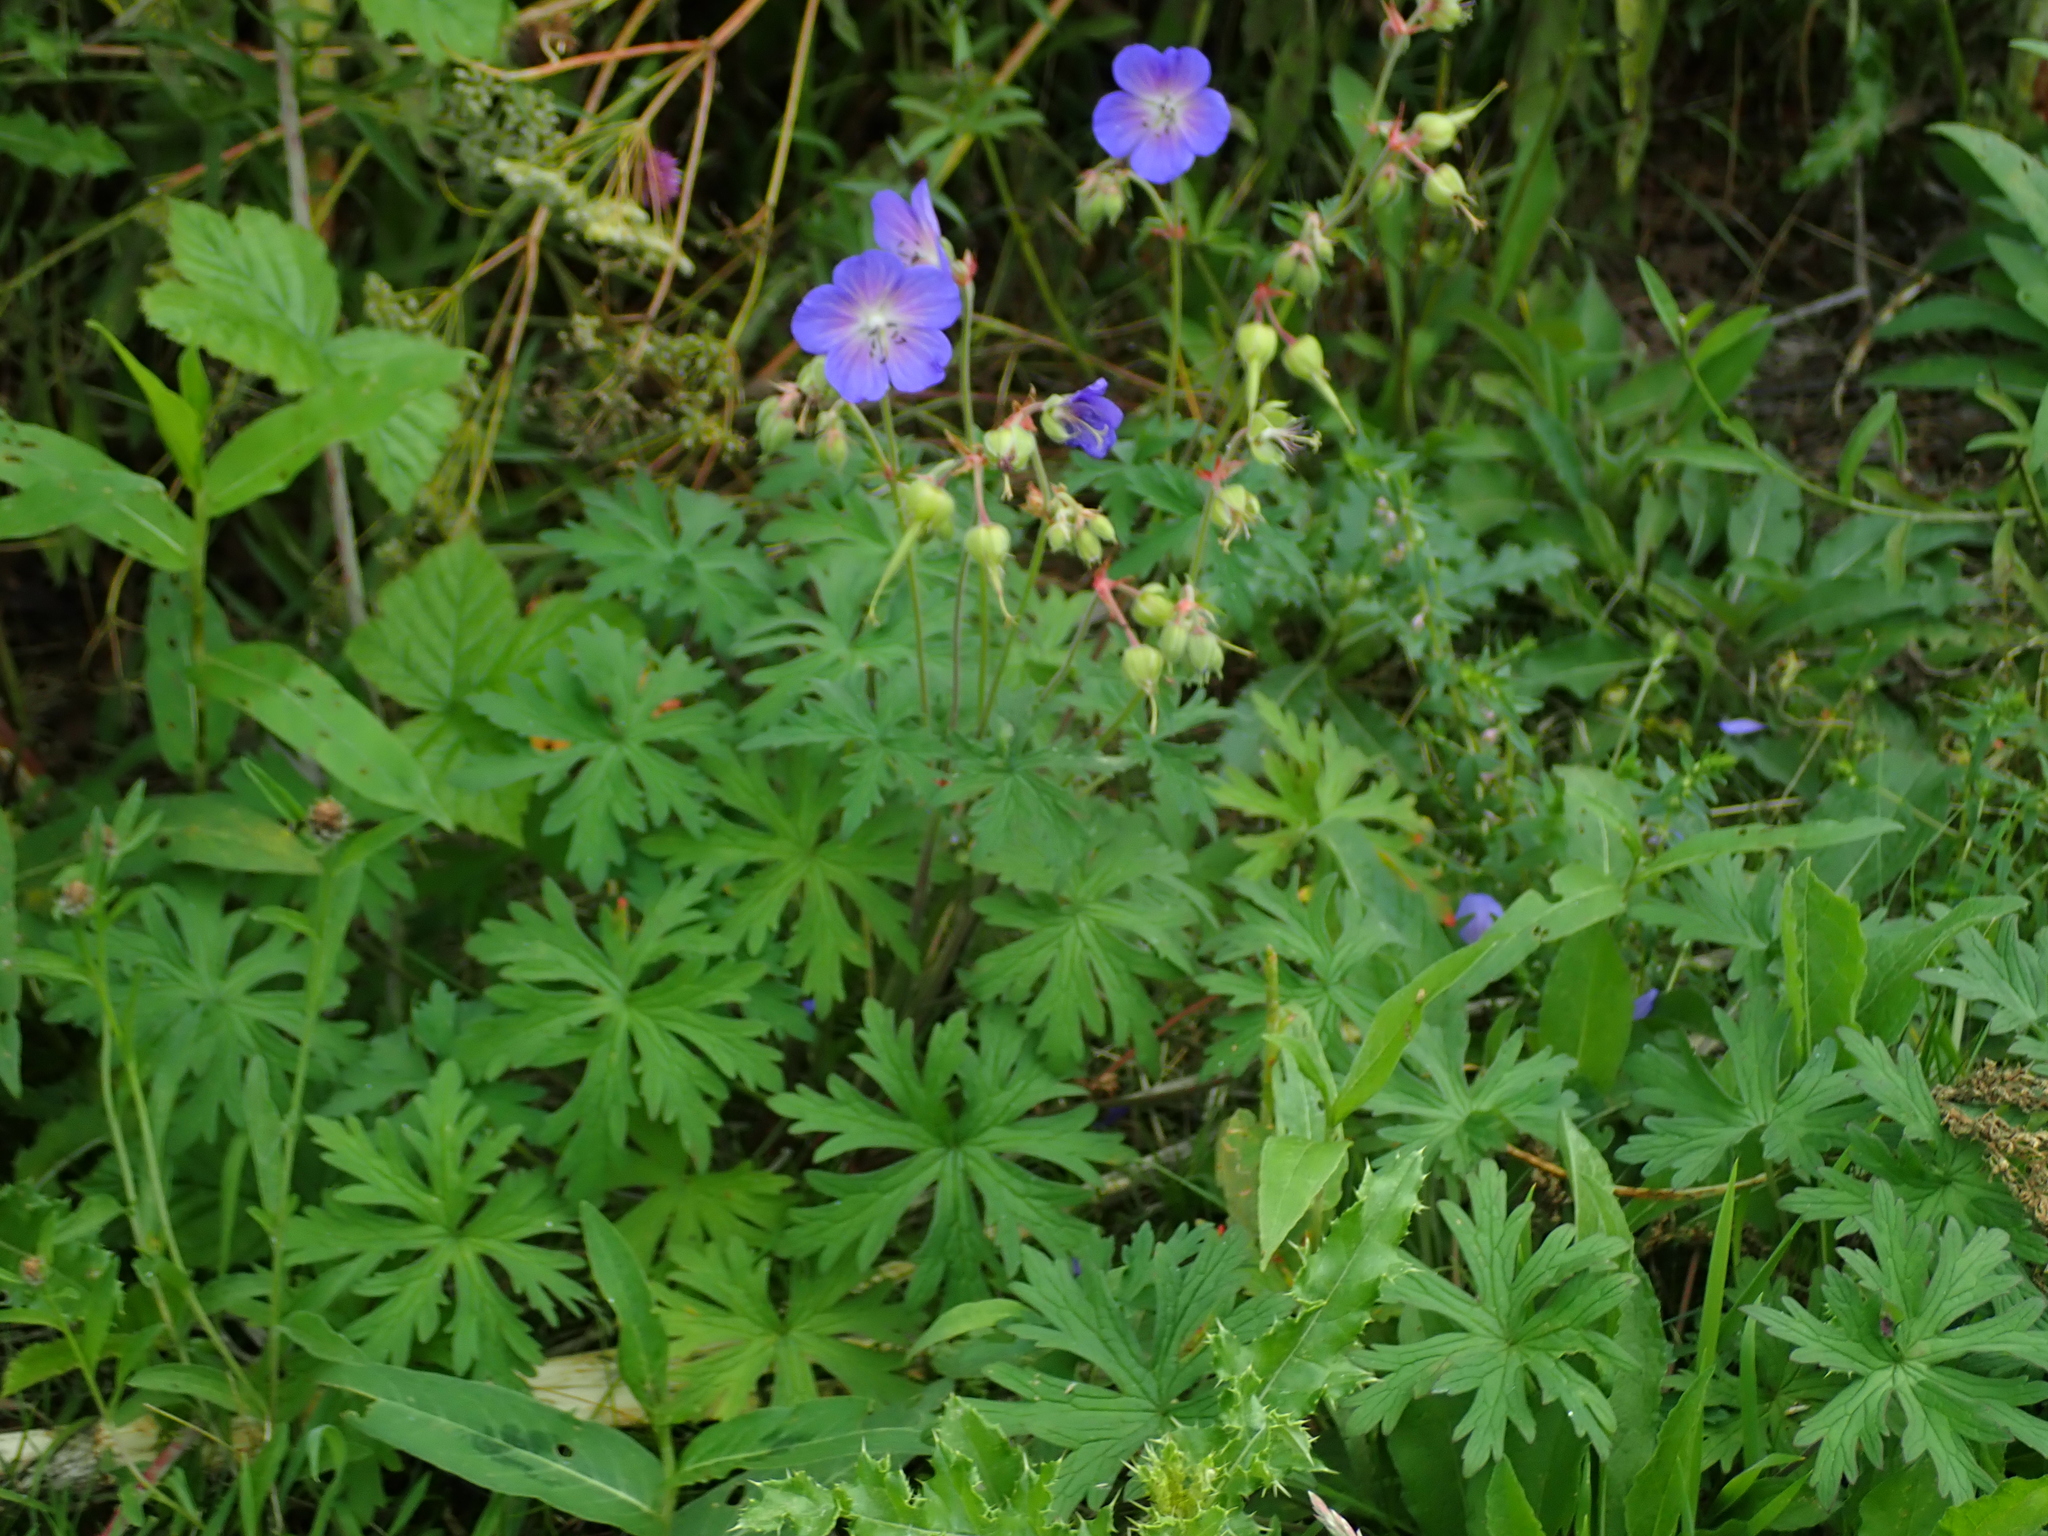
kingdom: Plantae
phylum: Tracheophyta
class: Magnoliopsida
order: Geraniales
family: Geraniaceae
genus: Geranium
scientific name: Geranium pratense
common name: Meadow crane's-bill
